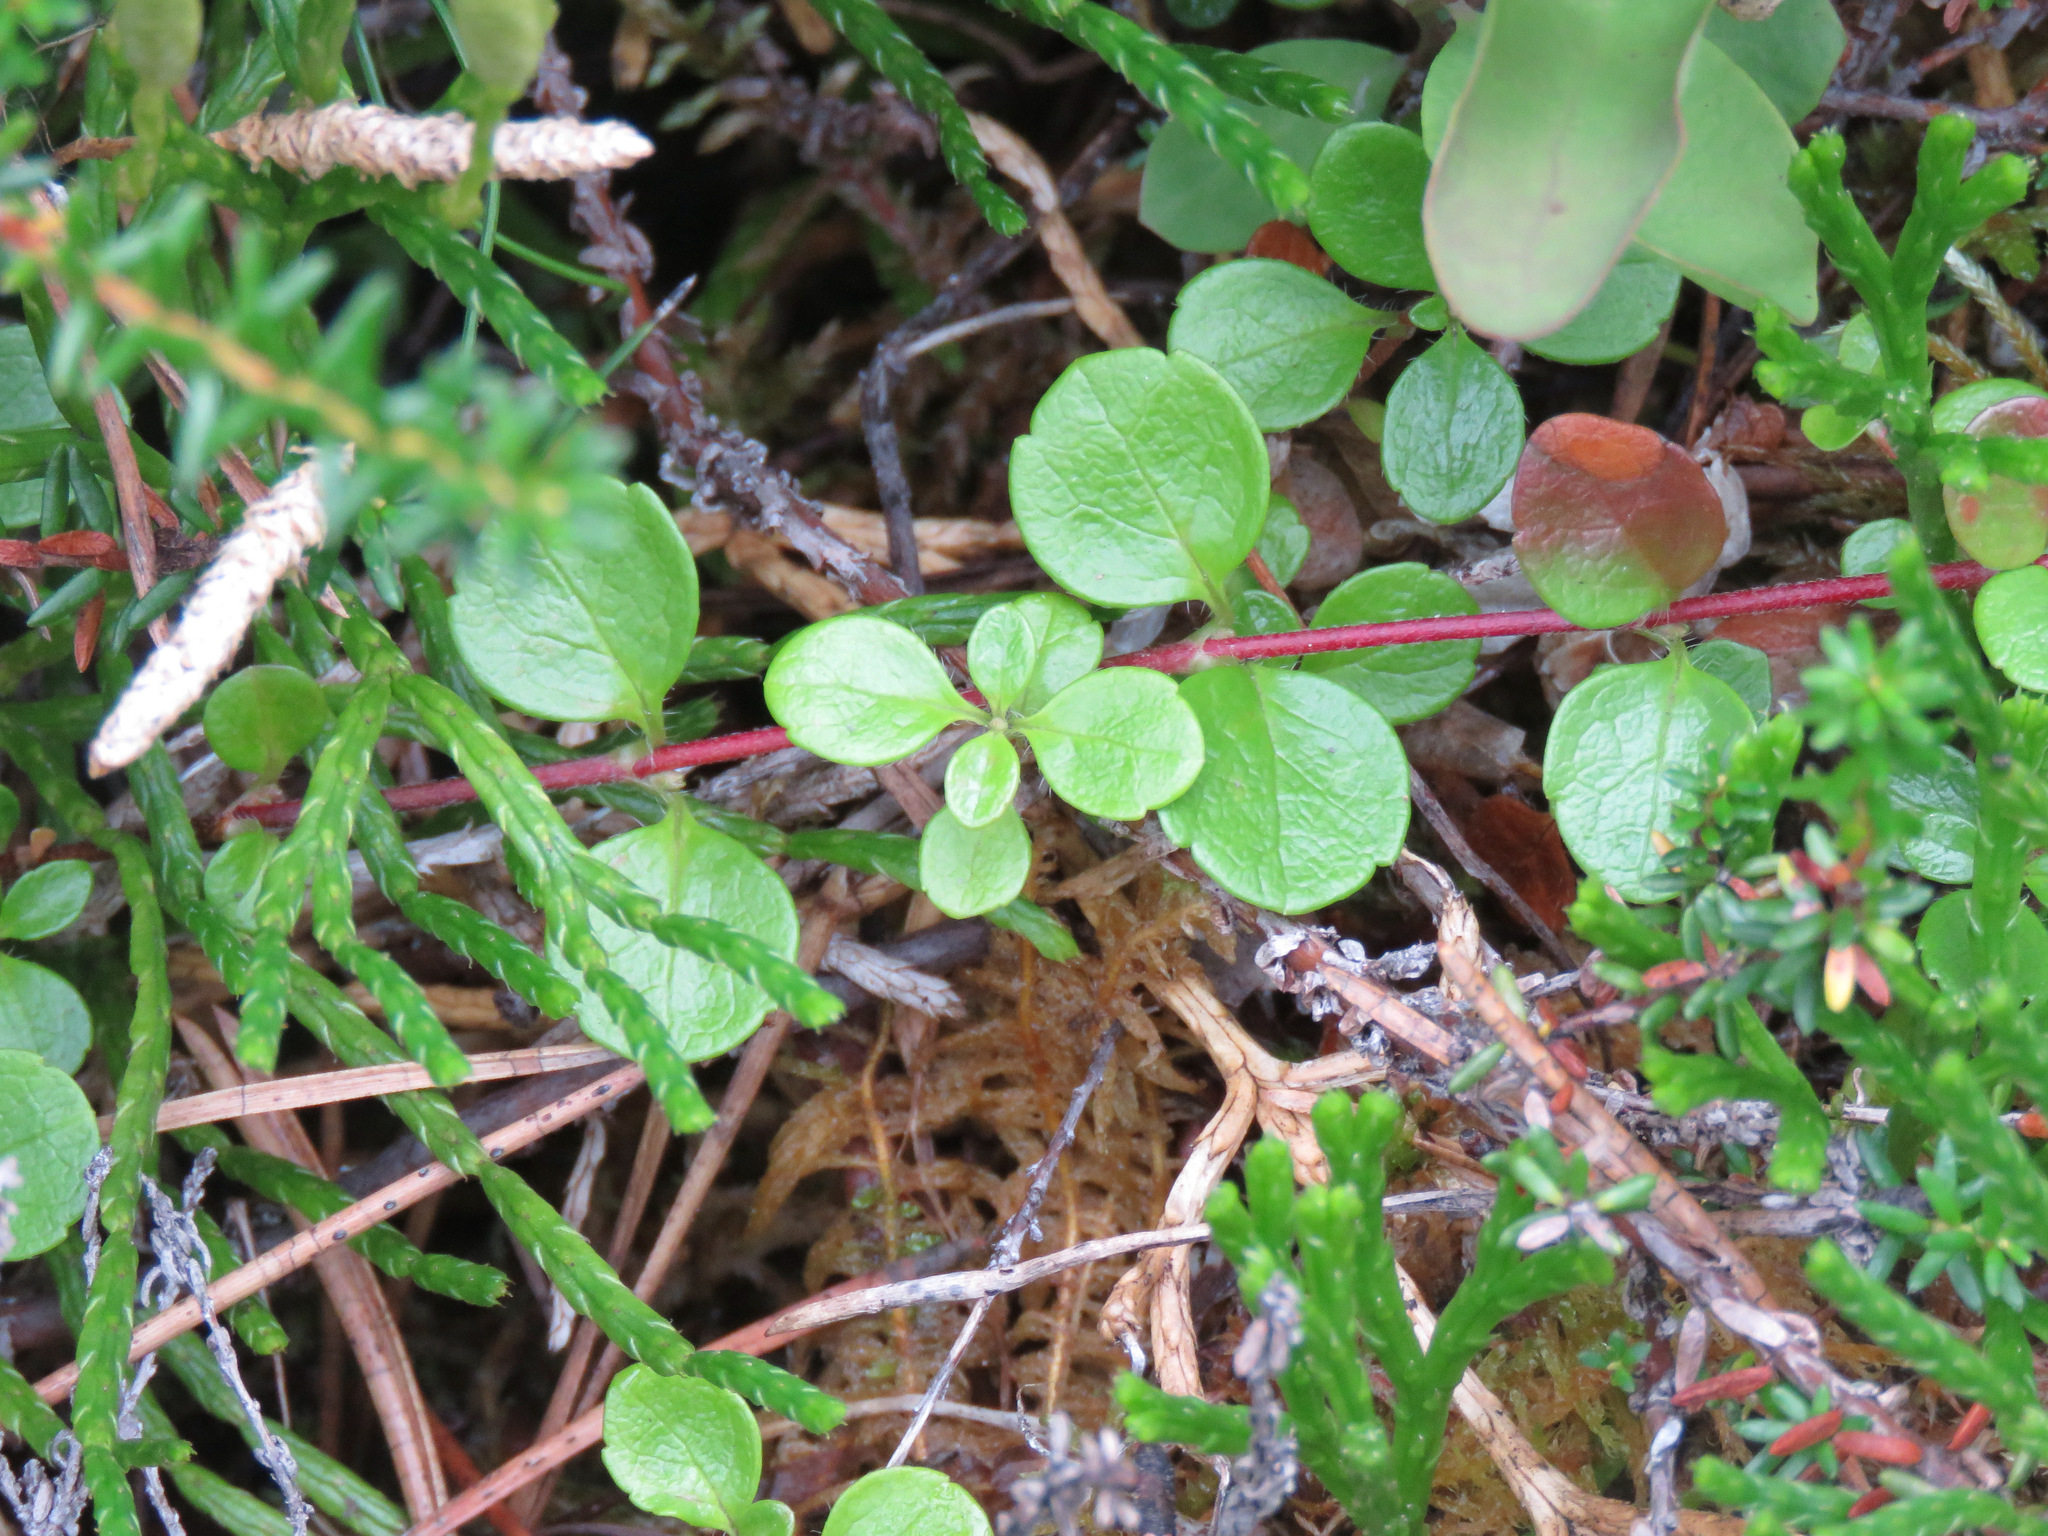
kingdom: Plantae
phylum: Tracheophyta
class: Magnoliopsida
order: Dipsacales
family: Caprifoliaceae
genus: Linnaea
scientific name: Linnaea borealis
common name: Twinflower
